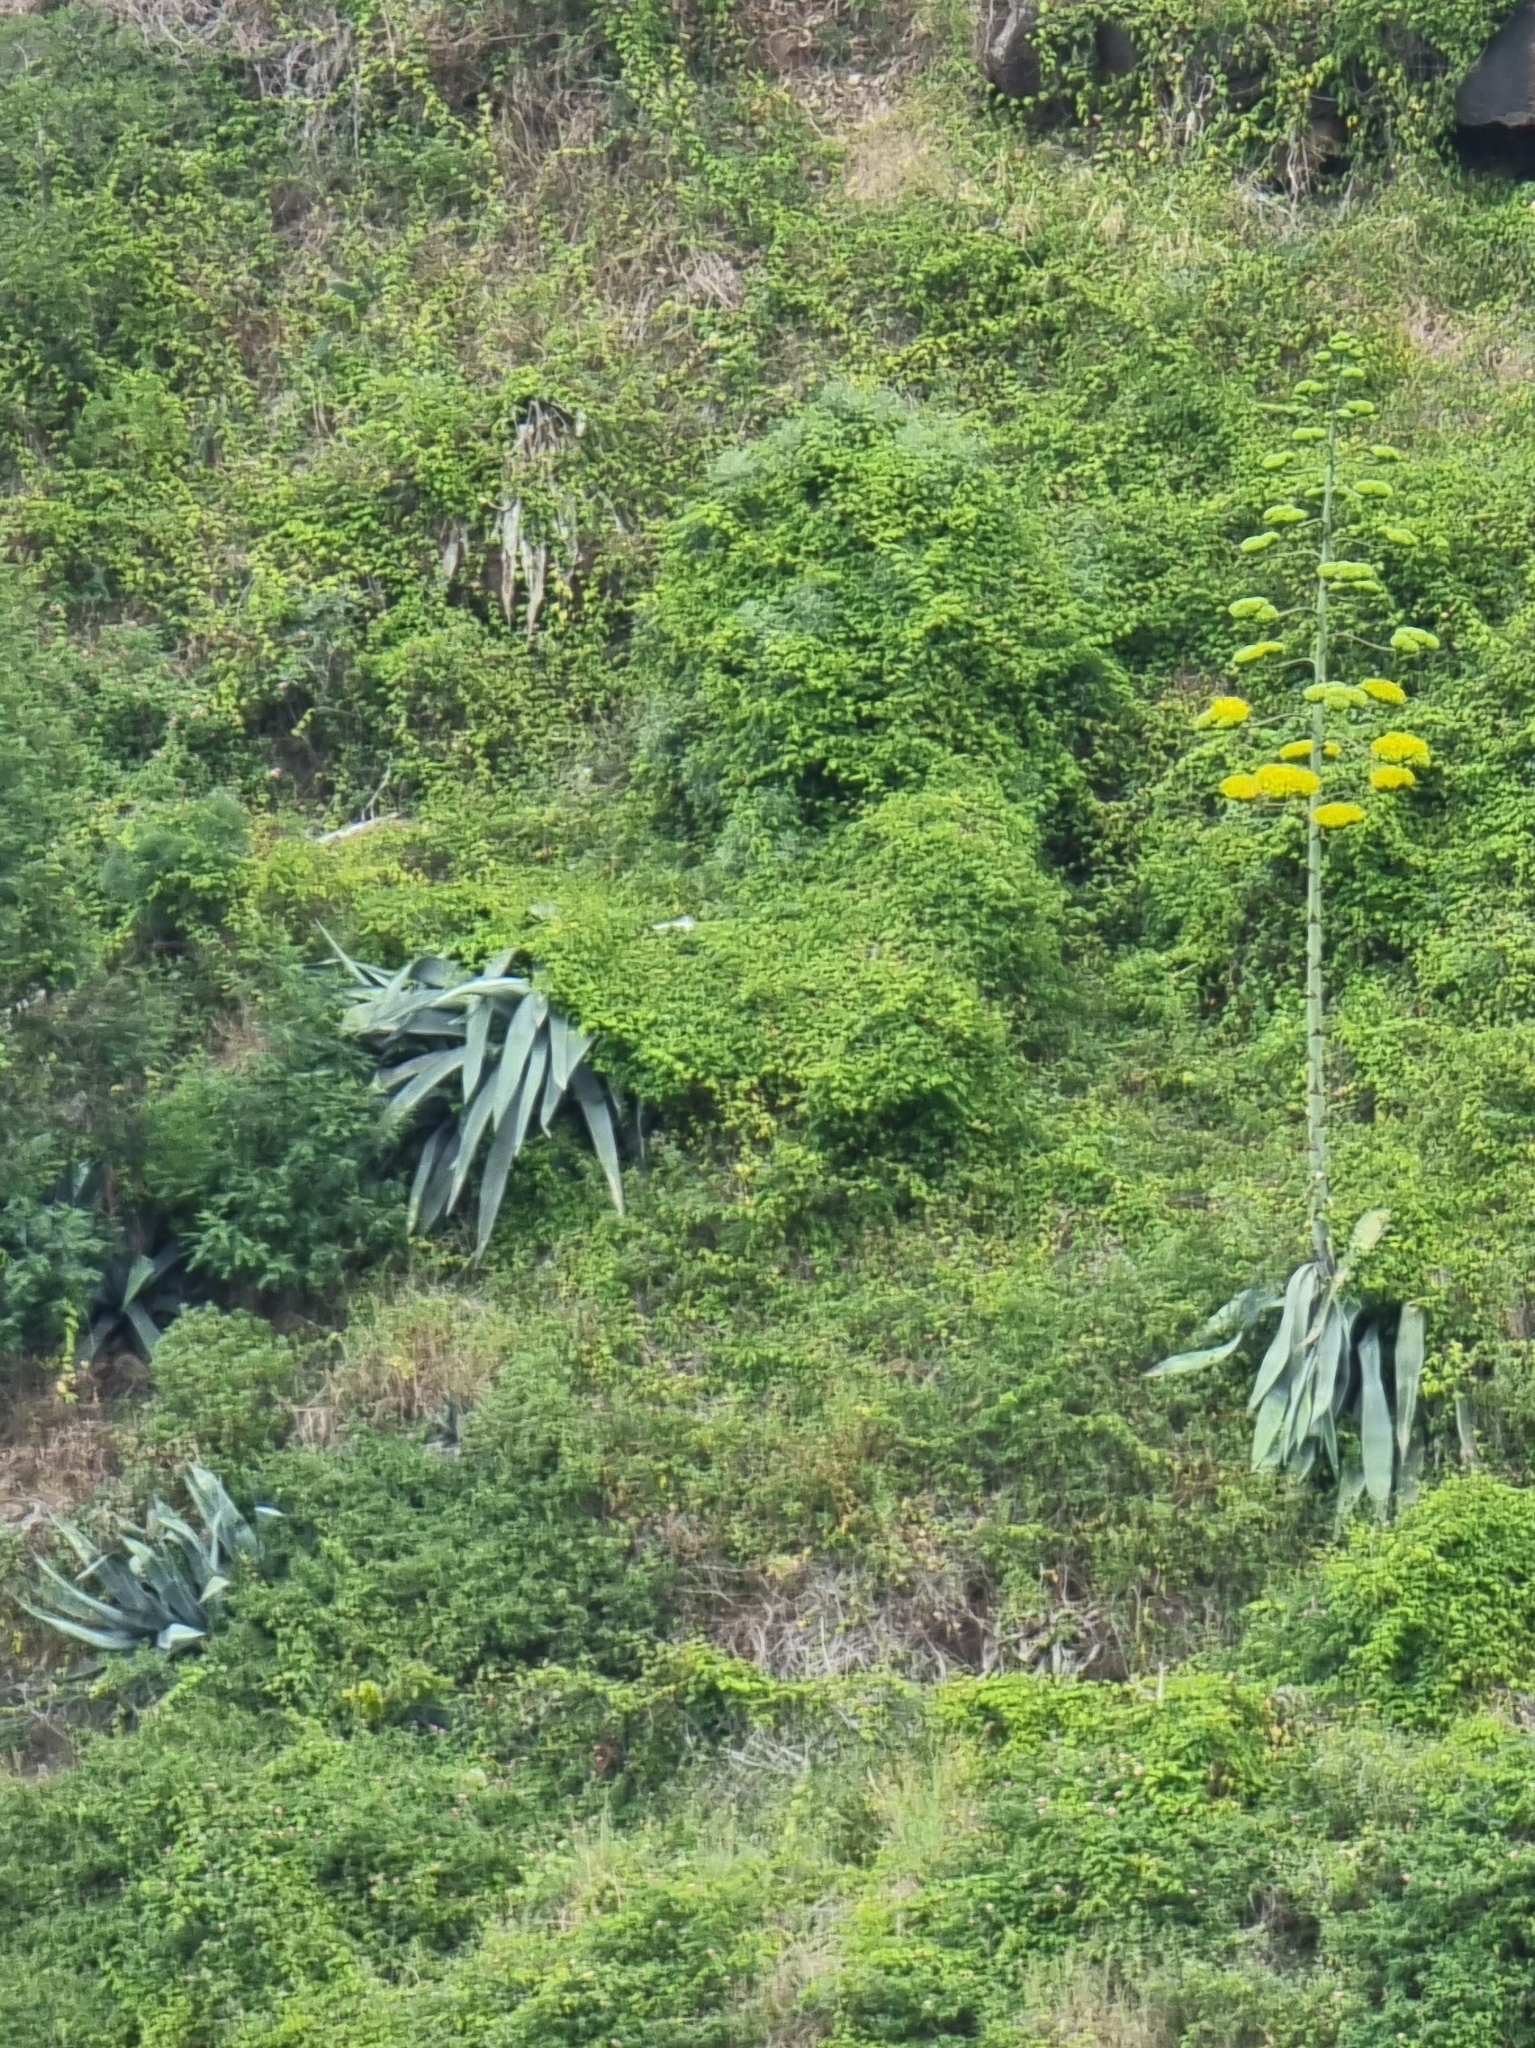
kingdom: Plantae
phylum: Tracheophyta
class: Liliopsida
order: Asparagales
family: Asparagaceae
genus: Agave
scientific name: Agave americana
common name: Centuryplant
